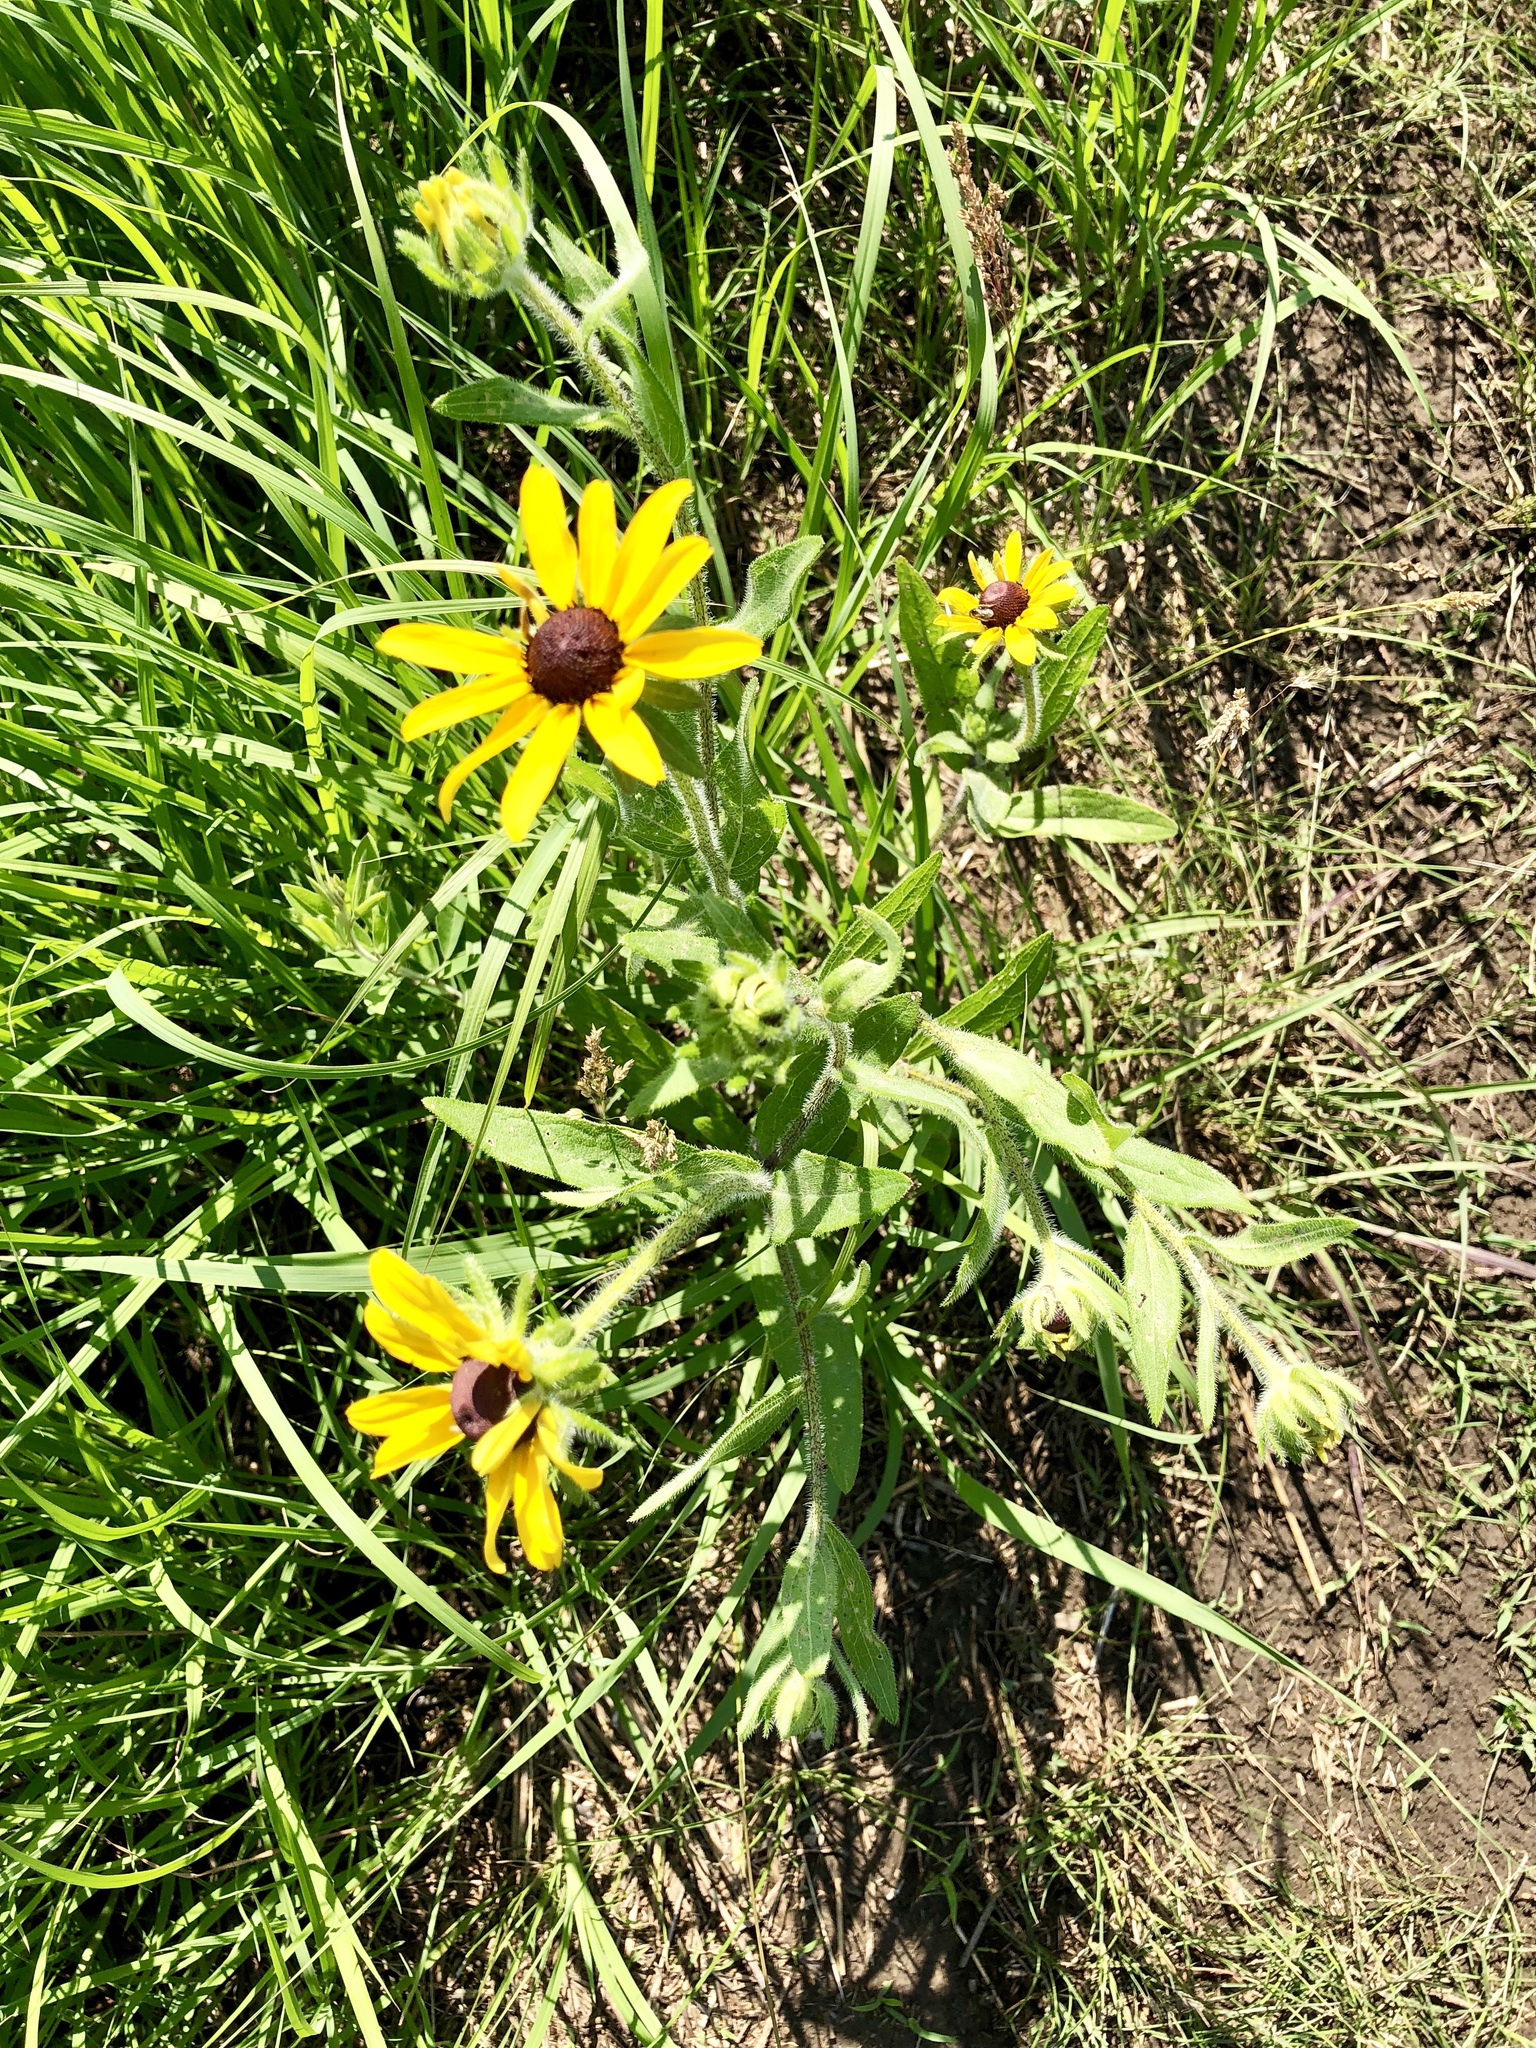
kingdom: Plantae
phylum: Tracheophyta
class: Magnoliopsida
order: Asterales
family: Asteraceae
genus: Rudbeckia
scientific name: Rudbeckia hirta
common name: Black-eyed-susan
